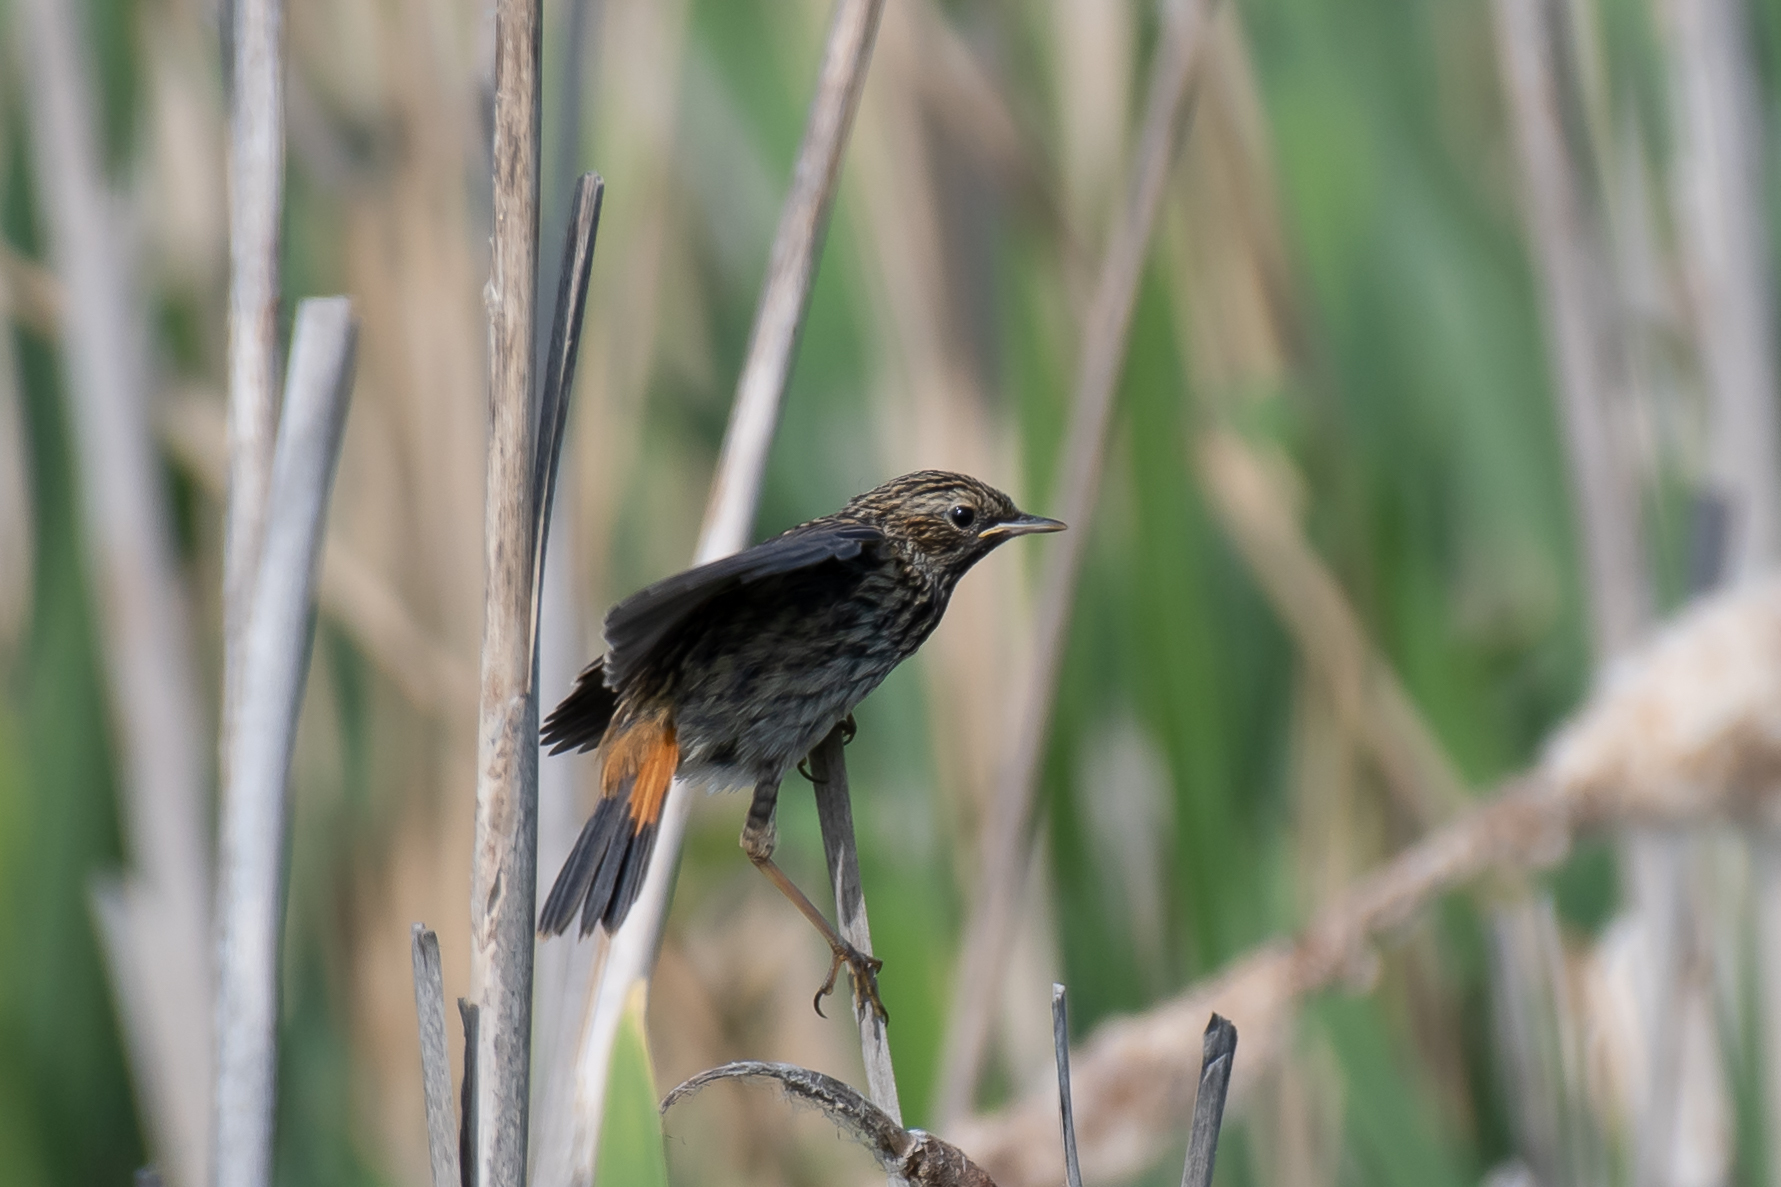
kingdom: Animalia
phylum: Chordata
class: Aves
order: Passeriformes
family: Muscicapidae
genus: Luscinia
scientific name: Luscinia svecica
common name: Bluethroat
